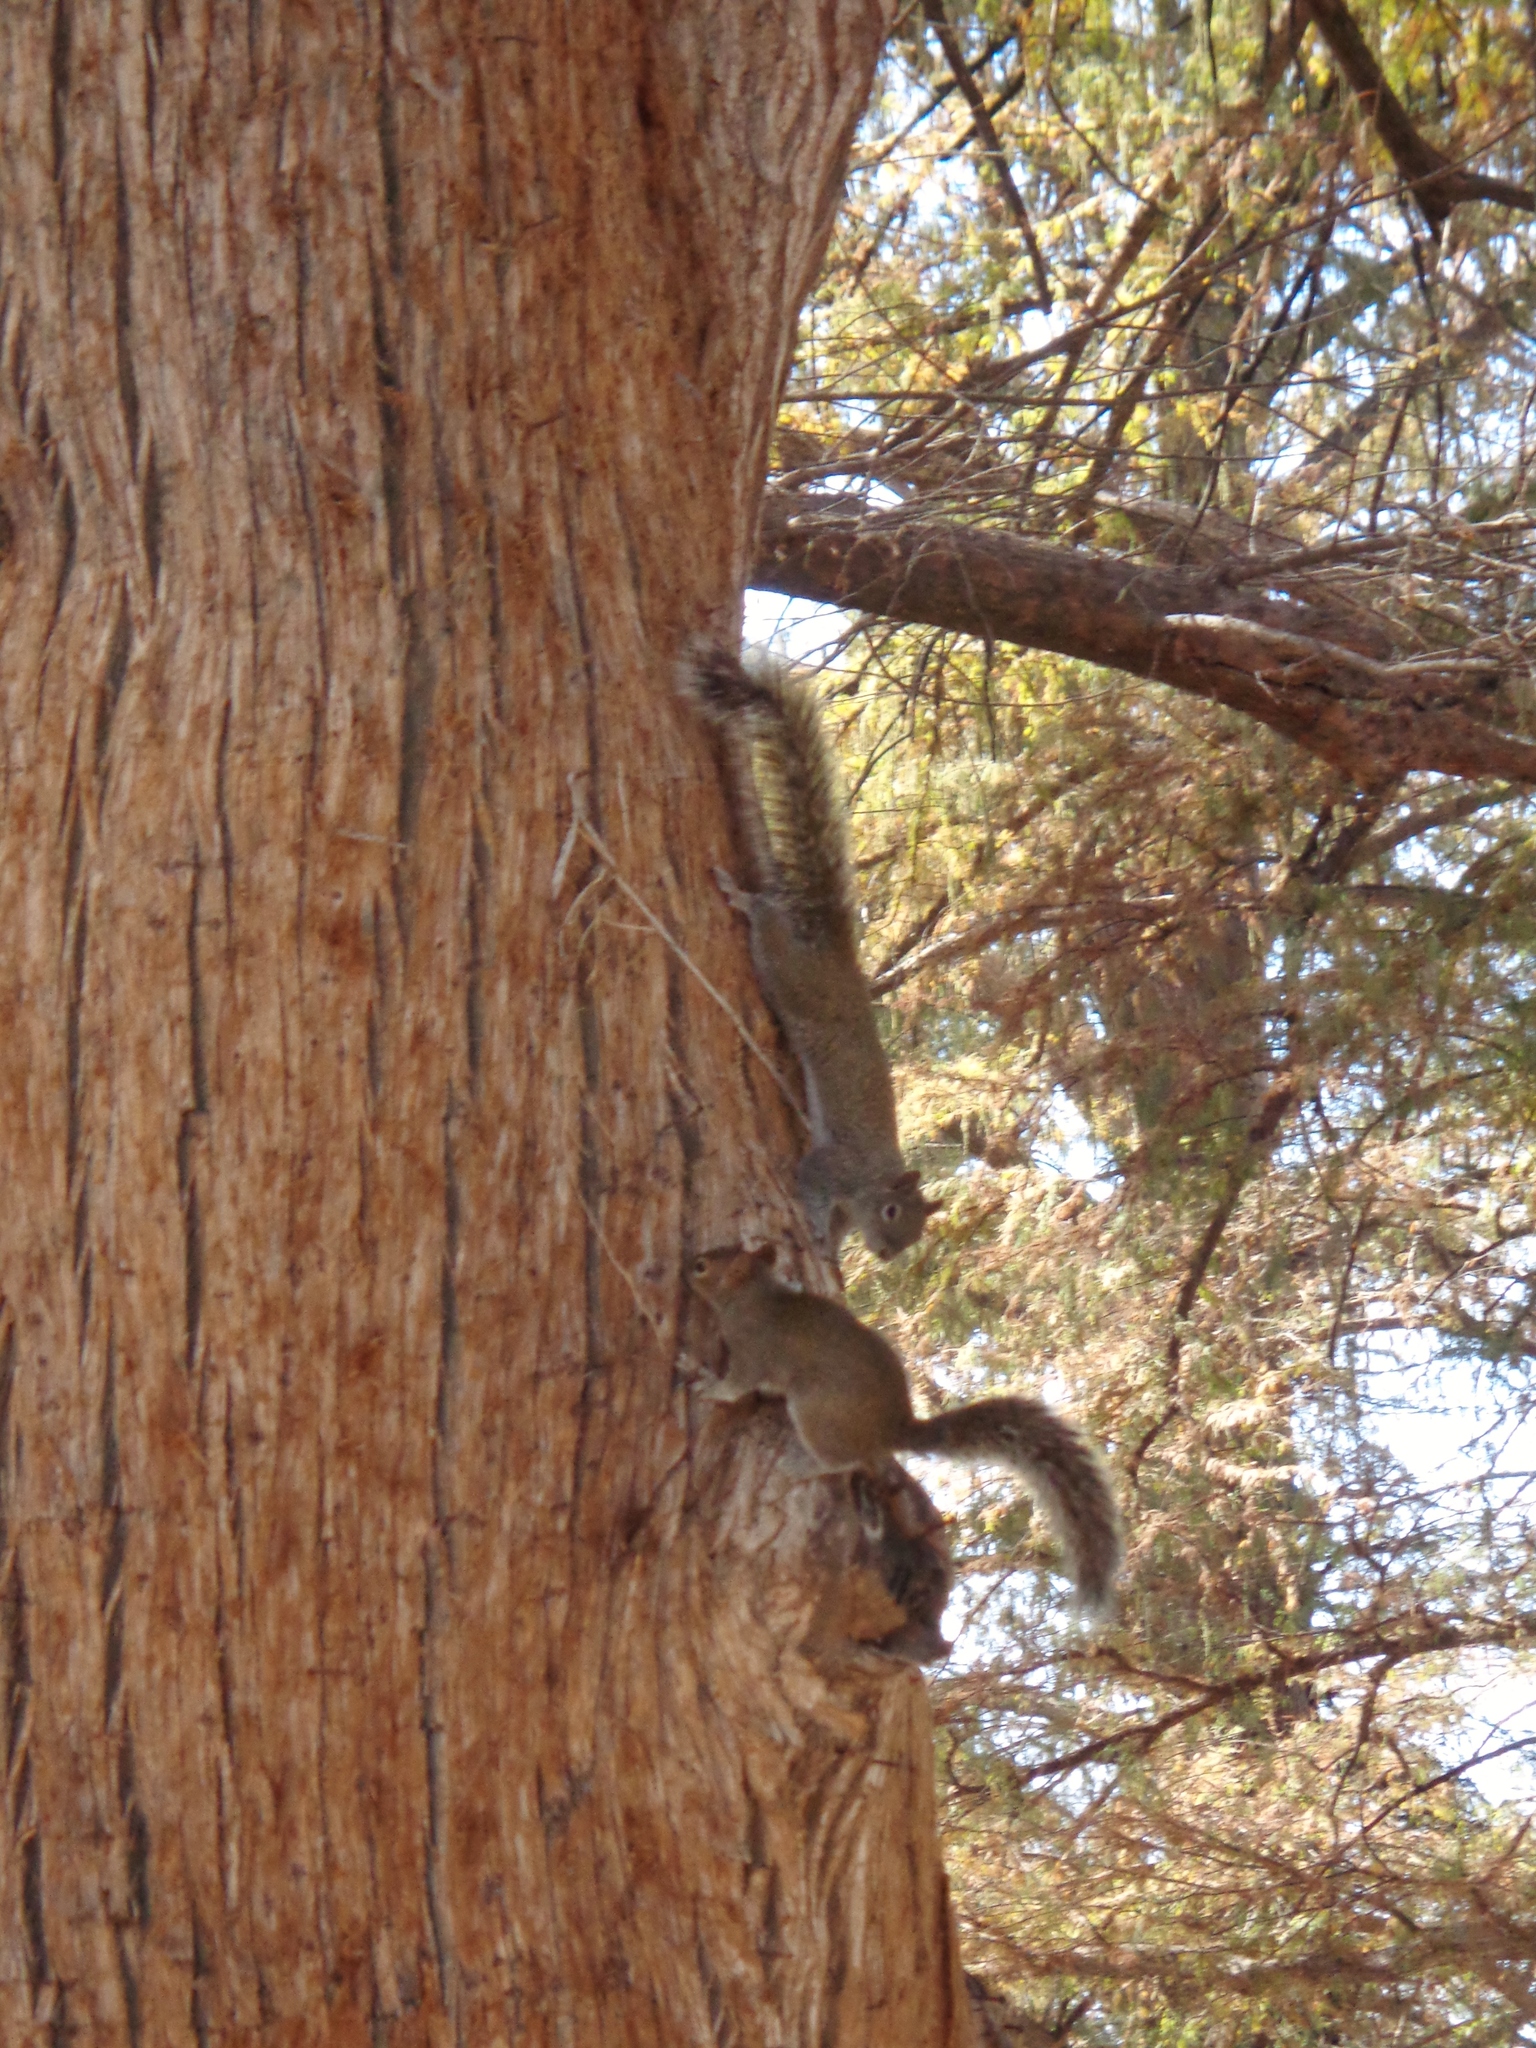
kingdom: Animalia
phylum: Chordata
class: Mammalia
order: Rodentia
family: Sciuridae
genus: Sciurus
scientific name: Sciurus alleni
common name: Allen's squirrel
